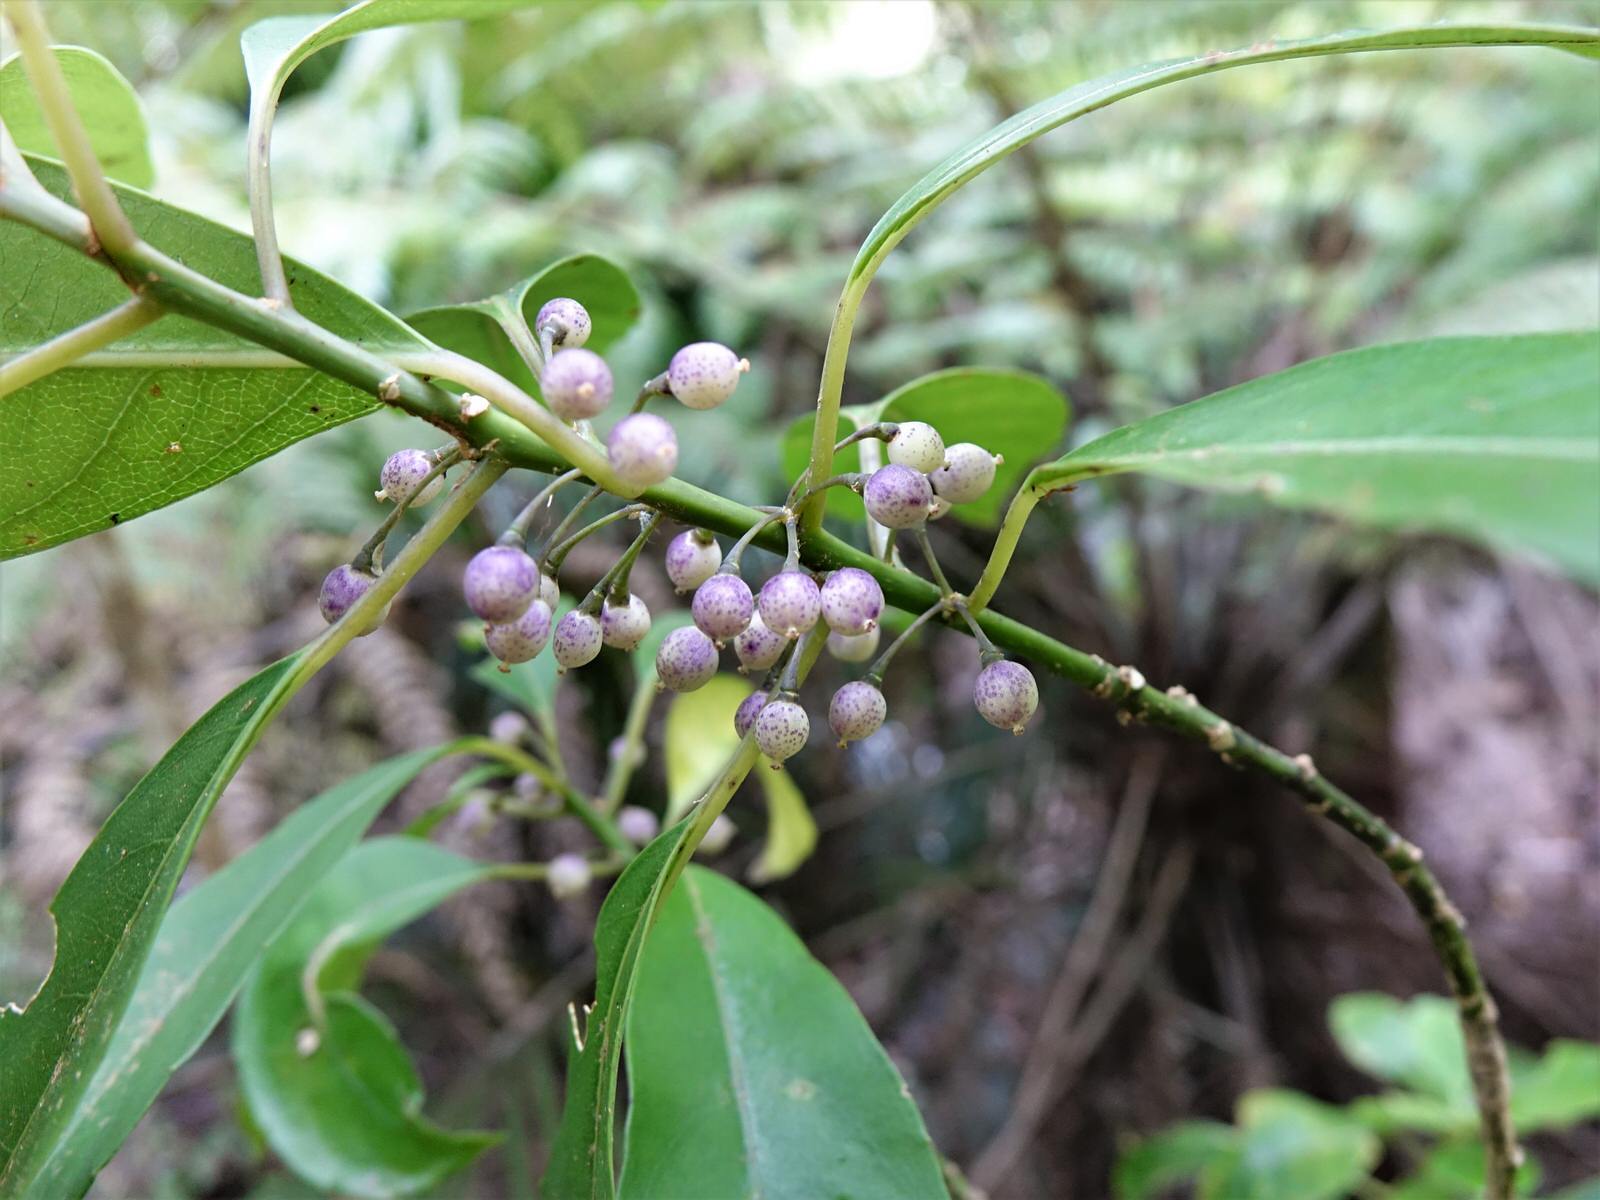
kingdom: Plantae
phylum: Tracheophyta
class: Magnoliopsida
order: Malpighiales
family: Violaceae
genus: Melicytus
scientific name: Melicytus macrophyllus
